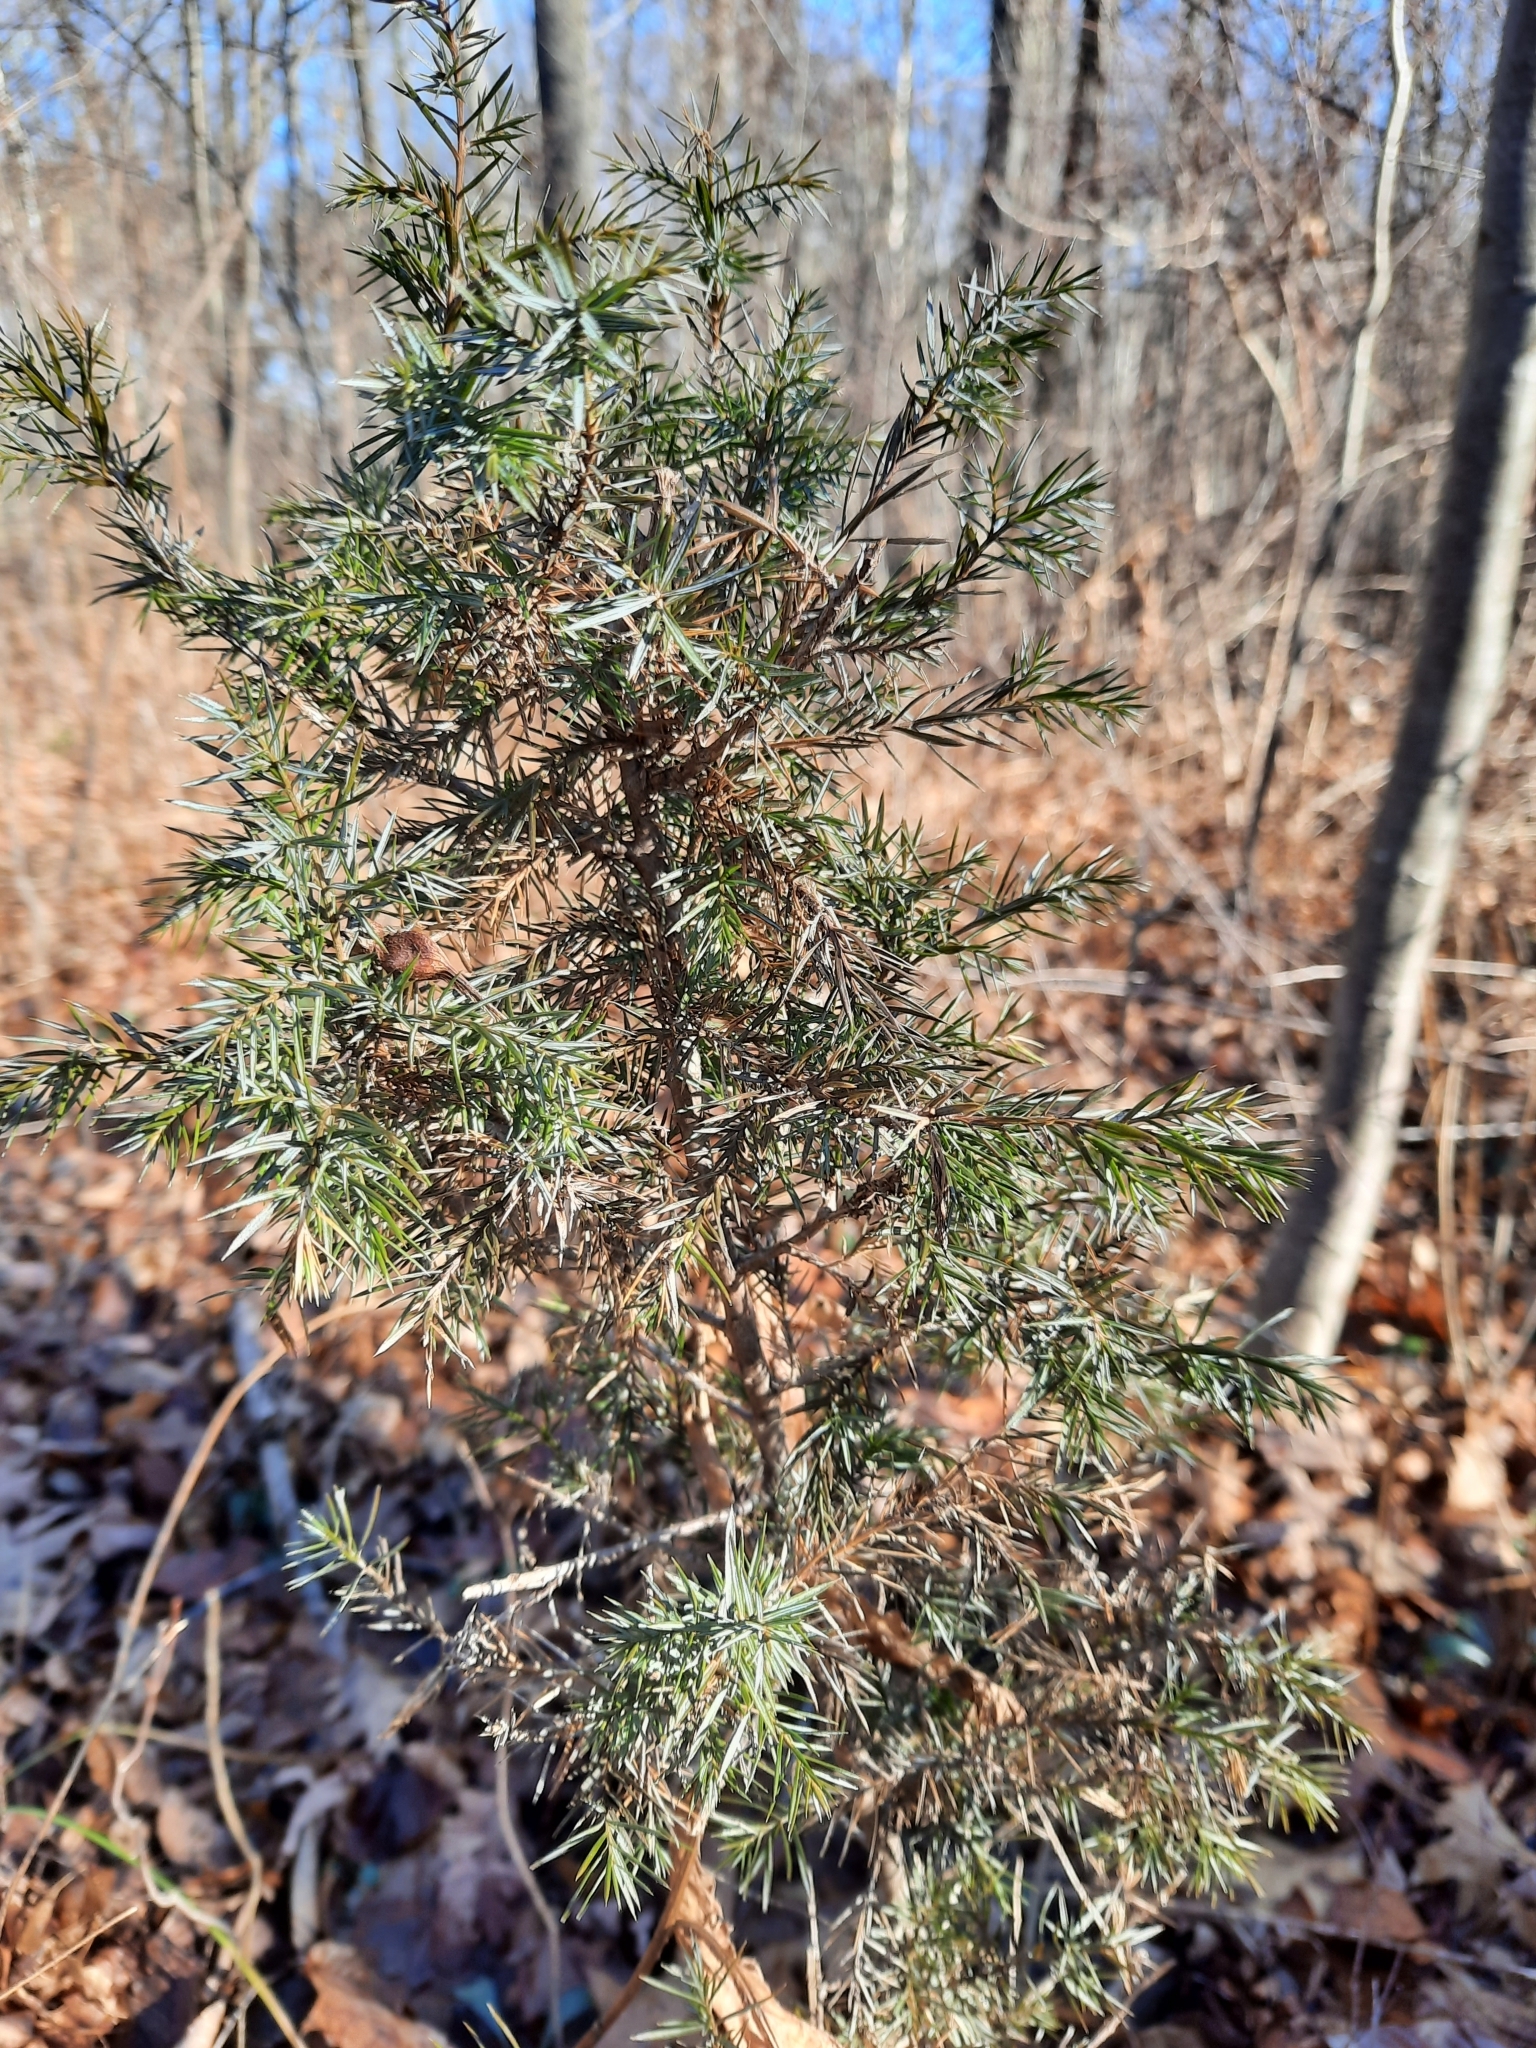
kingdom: Plantae
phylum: Tracheophyta
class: Pinopsida
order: Pinales
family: Cupressaceae
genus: Juniperus
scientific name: Juniperus virginiana
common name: Red juniper
